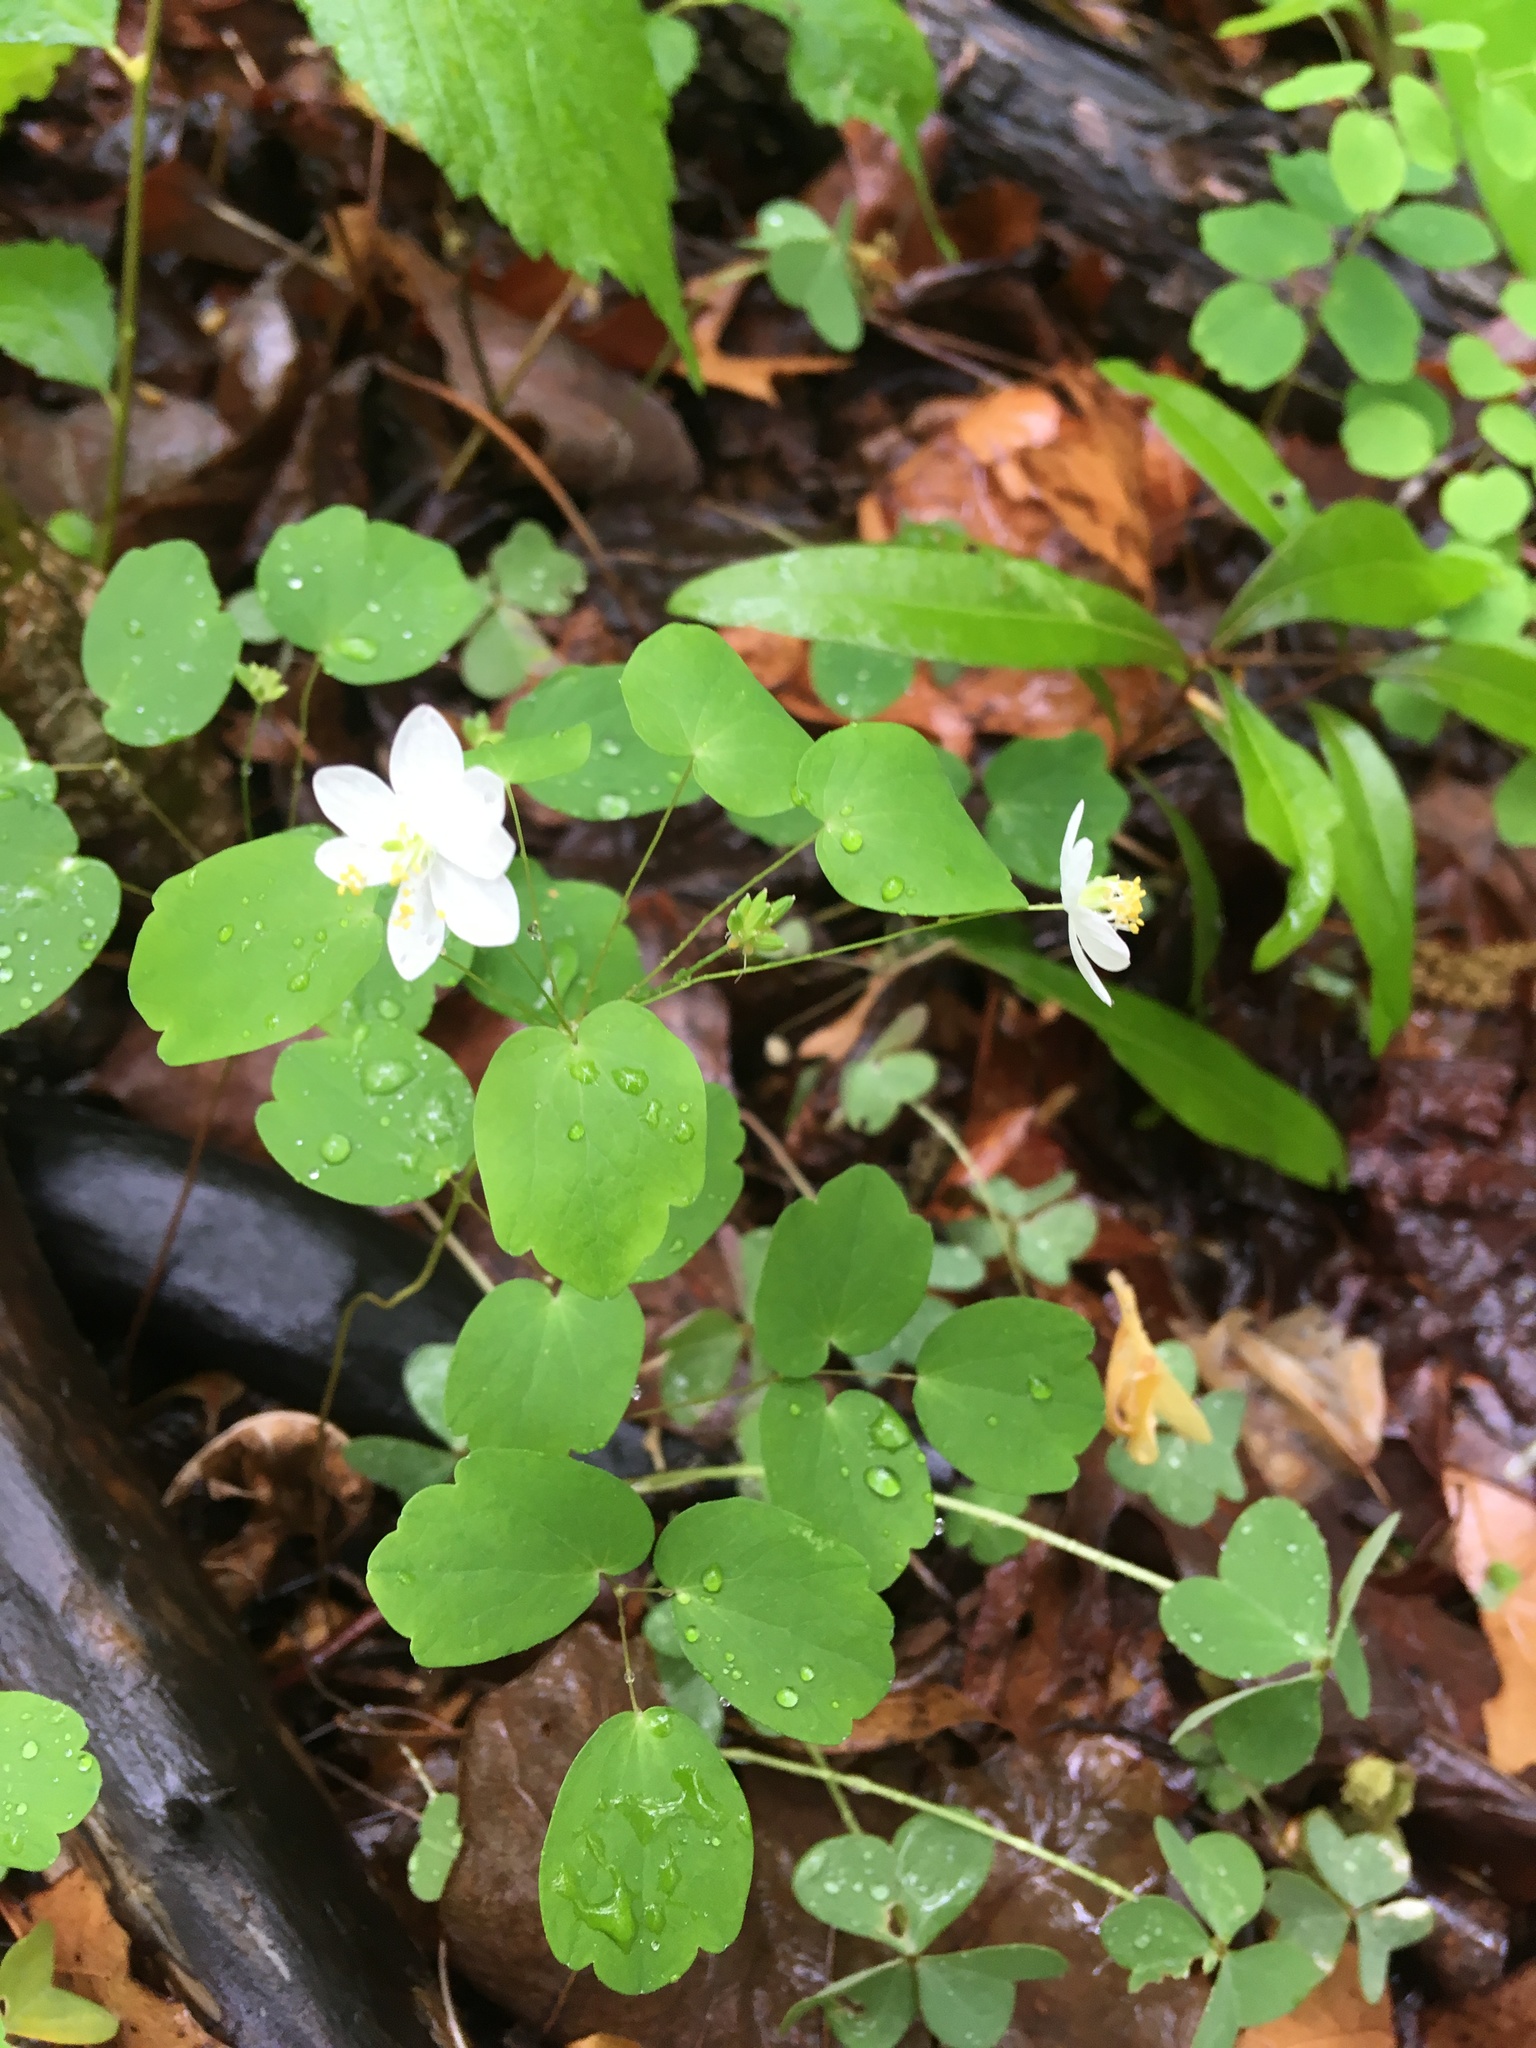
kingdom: Plantae
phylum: Tracheophyta
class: Magnoliopsida
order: Ranunculales
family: Ranunculaceae
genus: Thalictrum
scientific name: Thalictrum thalictroides
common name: Rue-anemone
